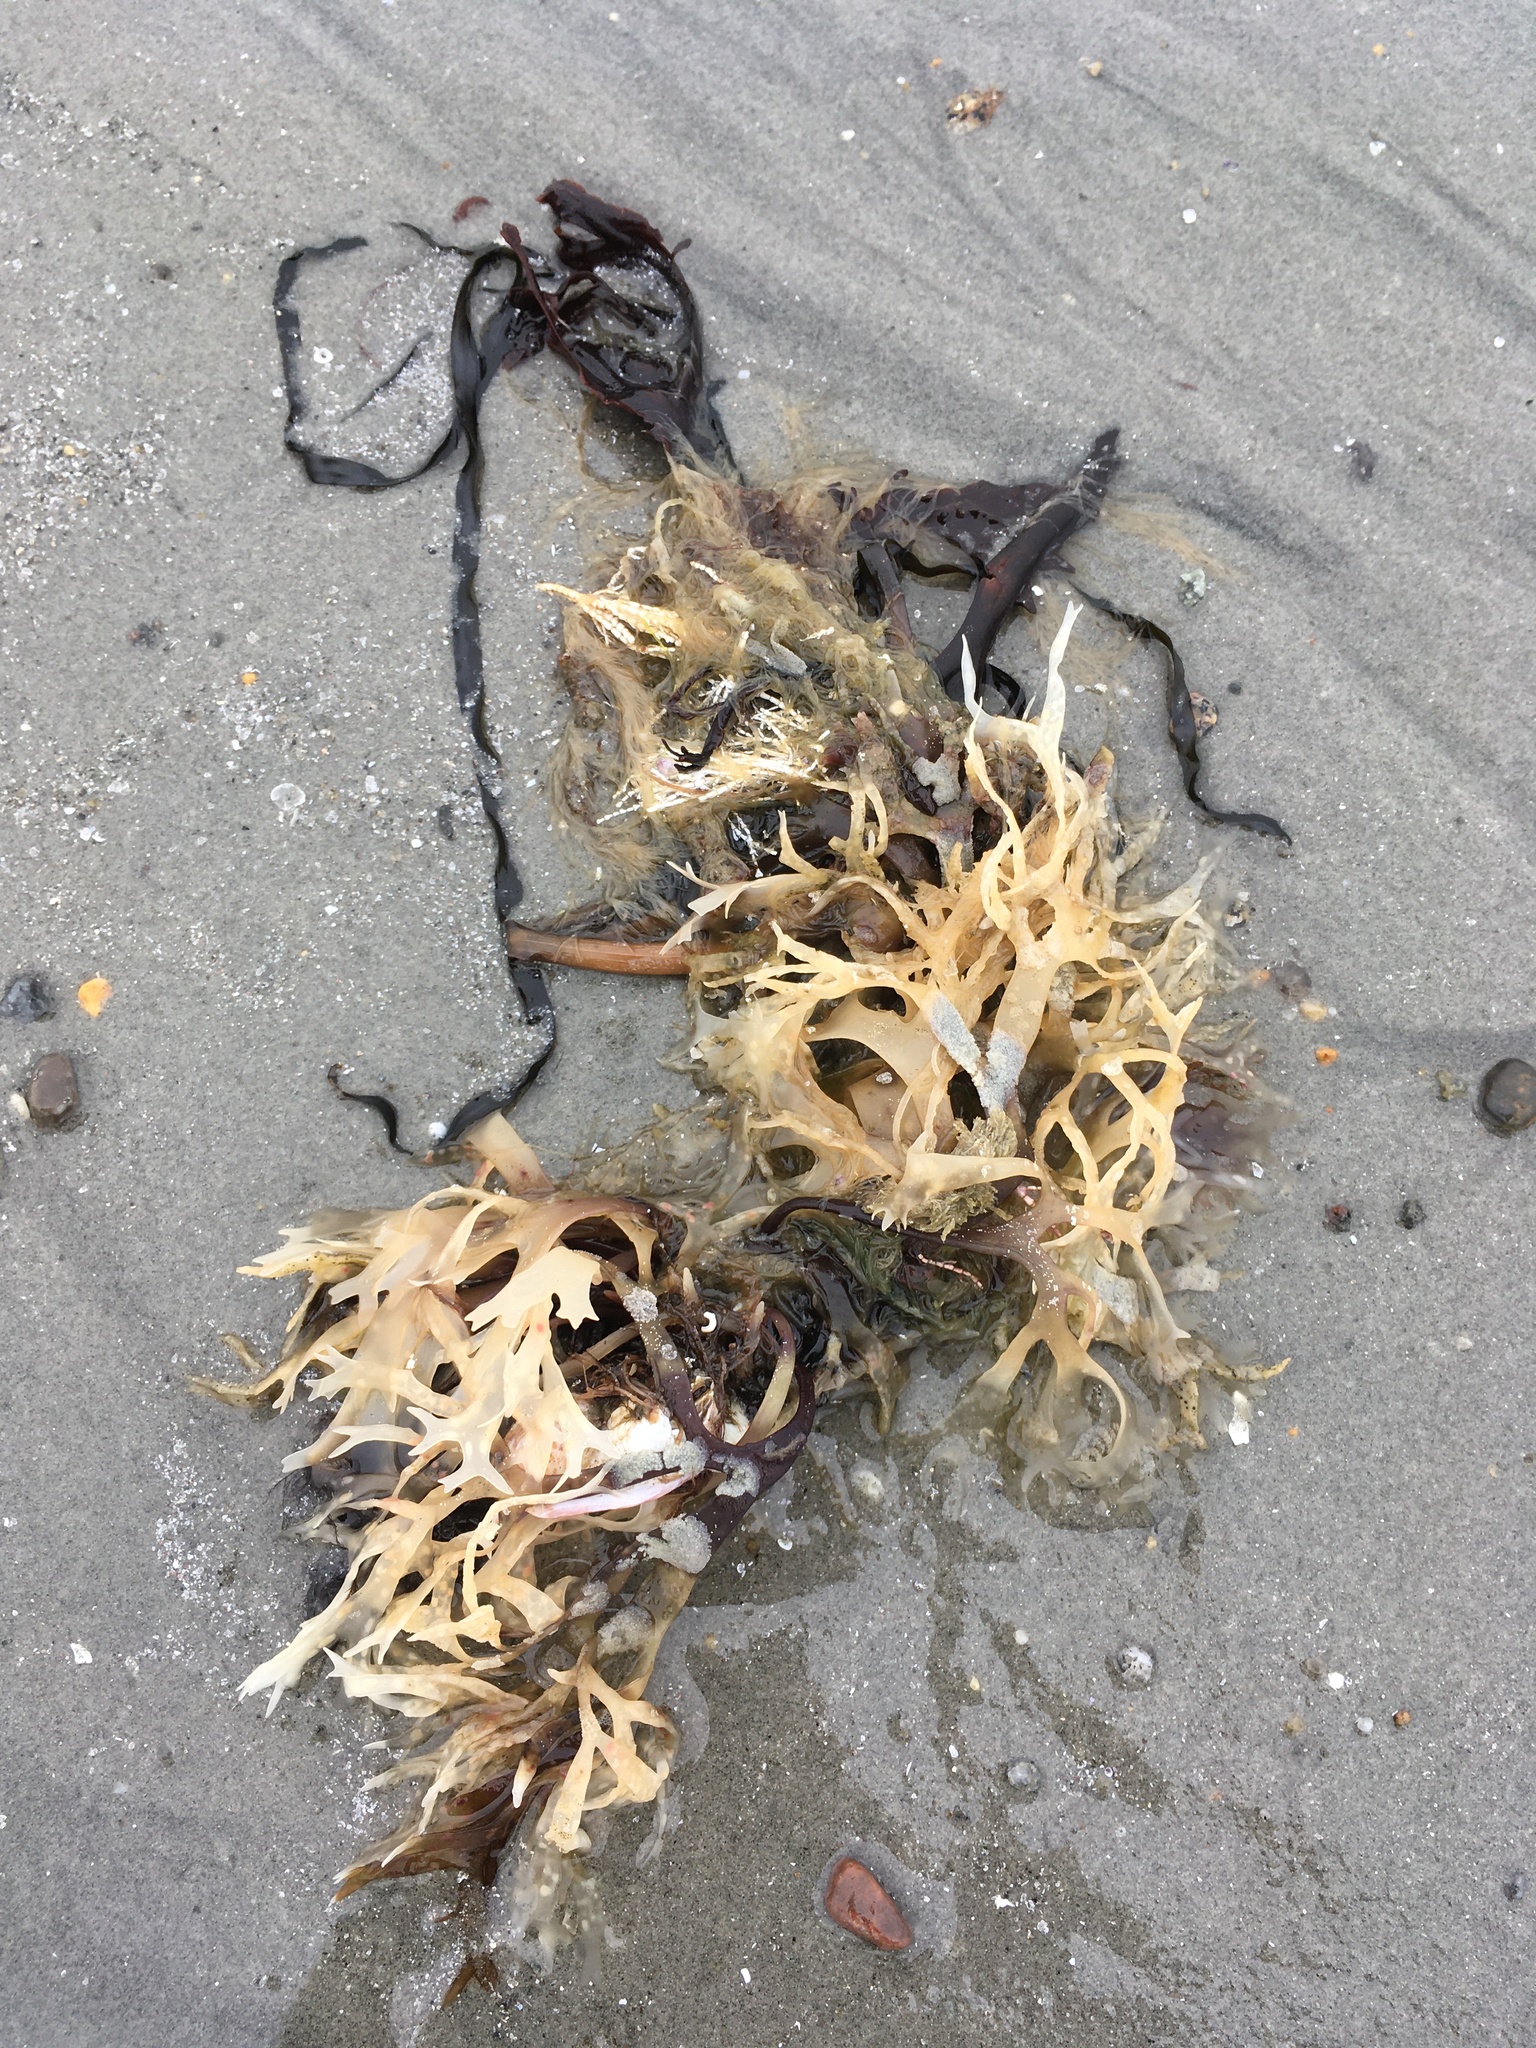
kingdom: Plantae
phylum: Rhodophyta
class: Florideophyceae
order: Gigartinales
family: Gigartinaceae
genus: Chondrus
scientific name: Chondrus crispus
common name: Carrageen
